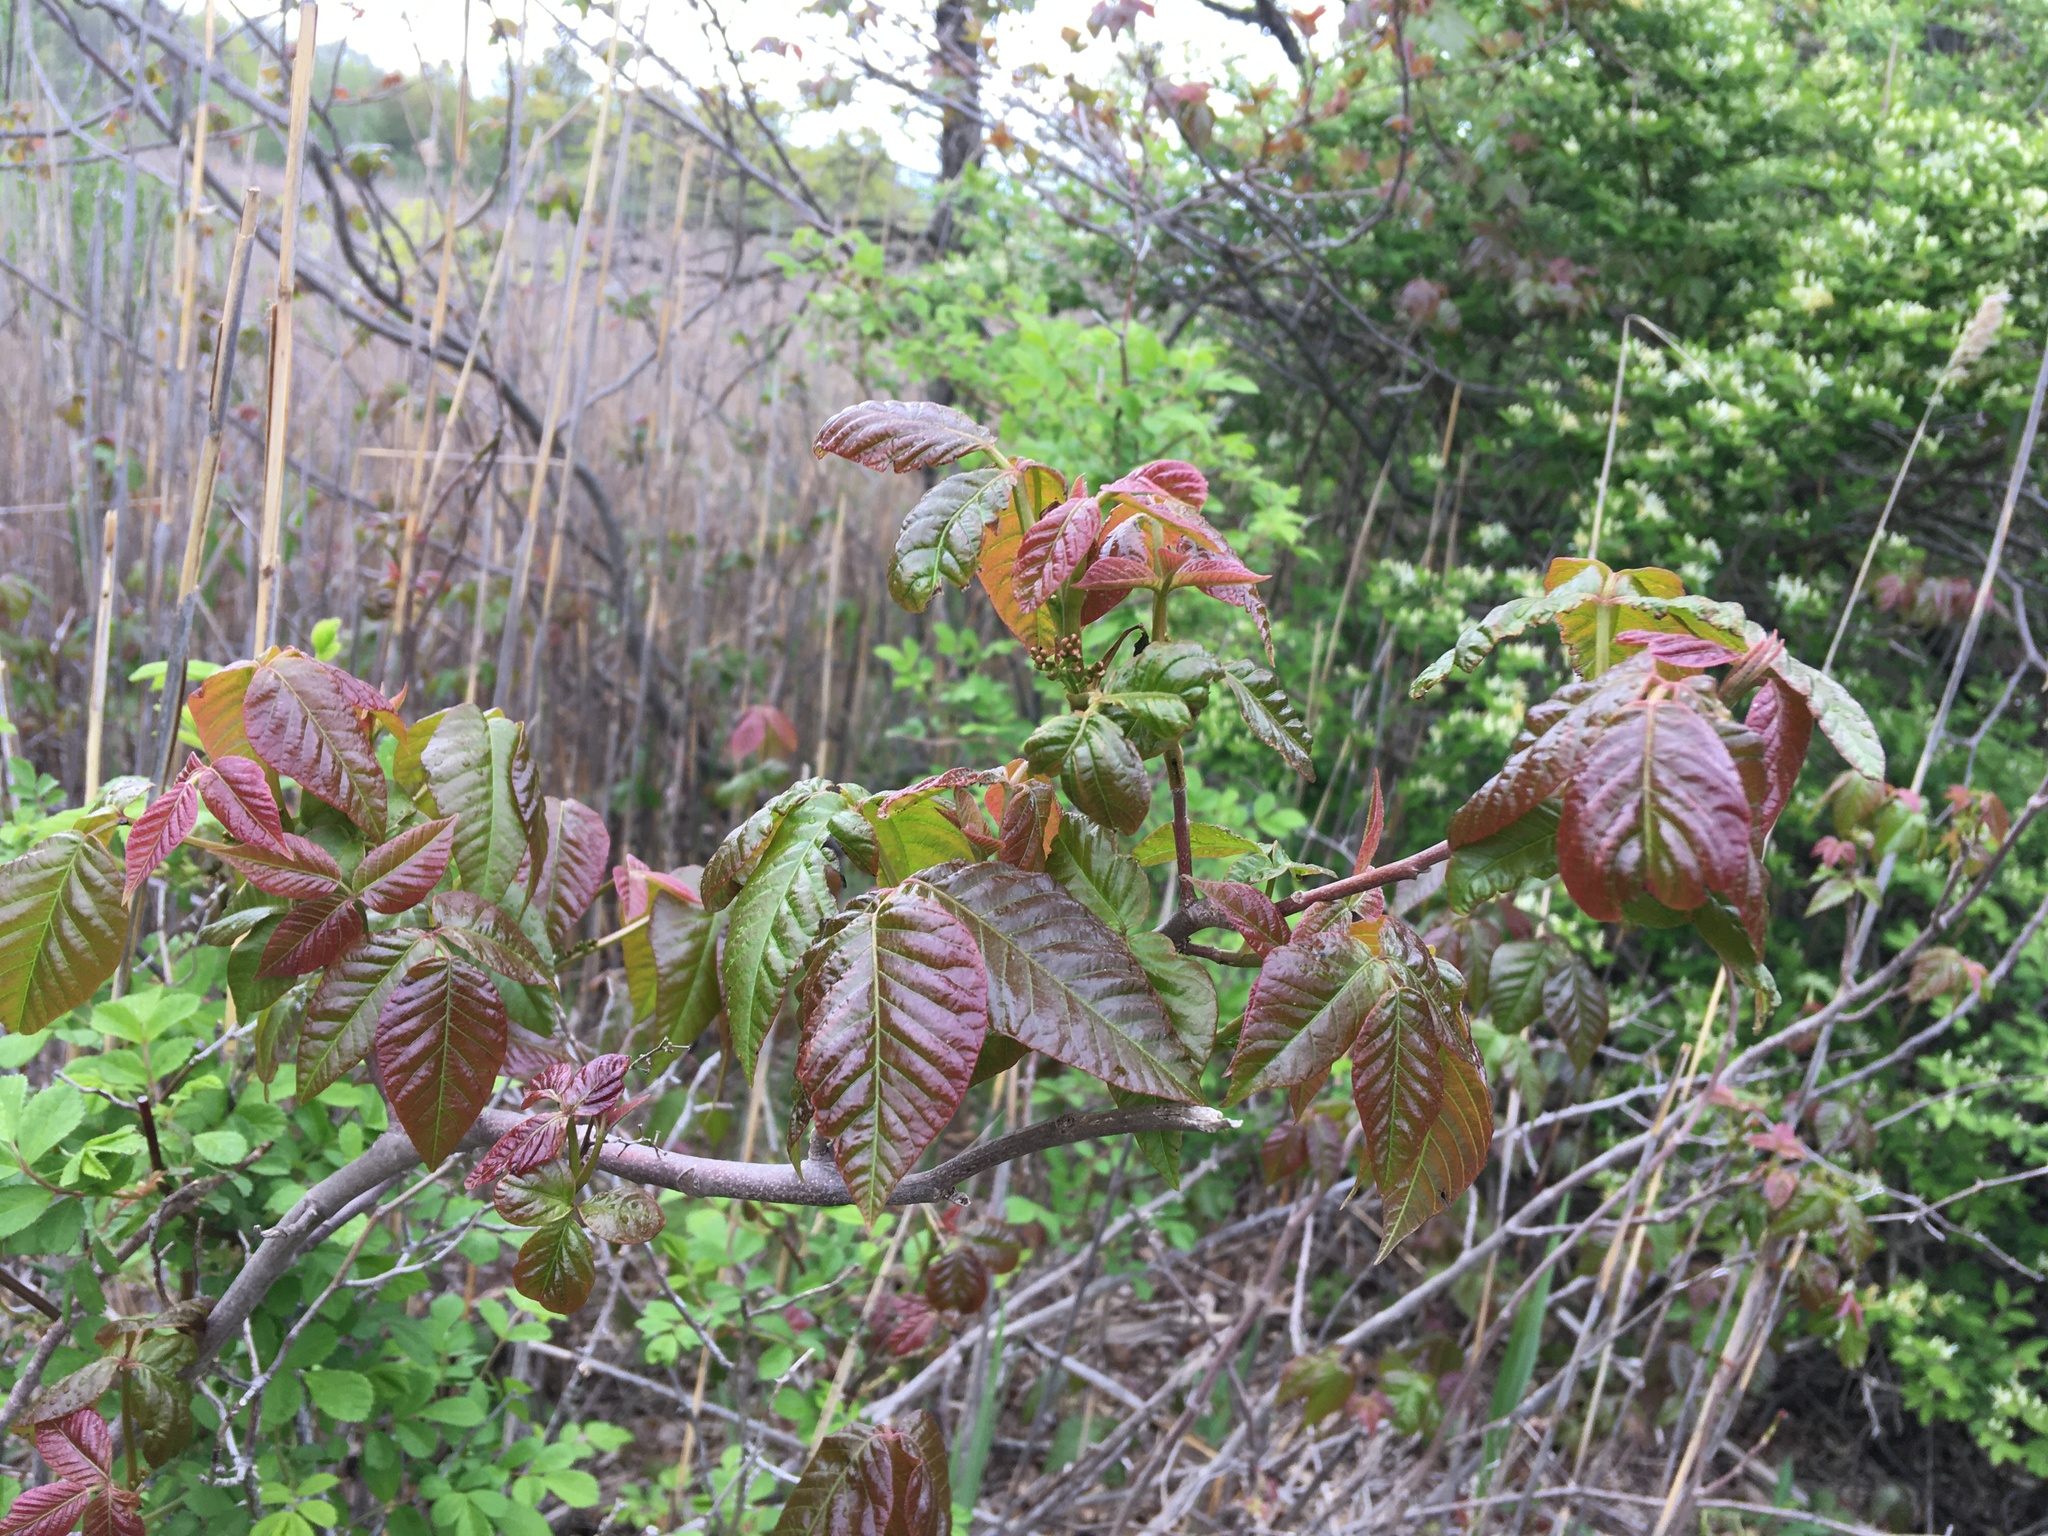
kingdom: Plantae
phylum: Tracheophyta
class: Magnoliopsida
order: Sapindales
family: Anacardiaceae
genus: Toxicodendron
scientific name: Toxicodendron radicans
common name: Poison ivy
